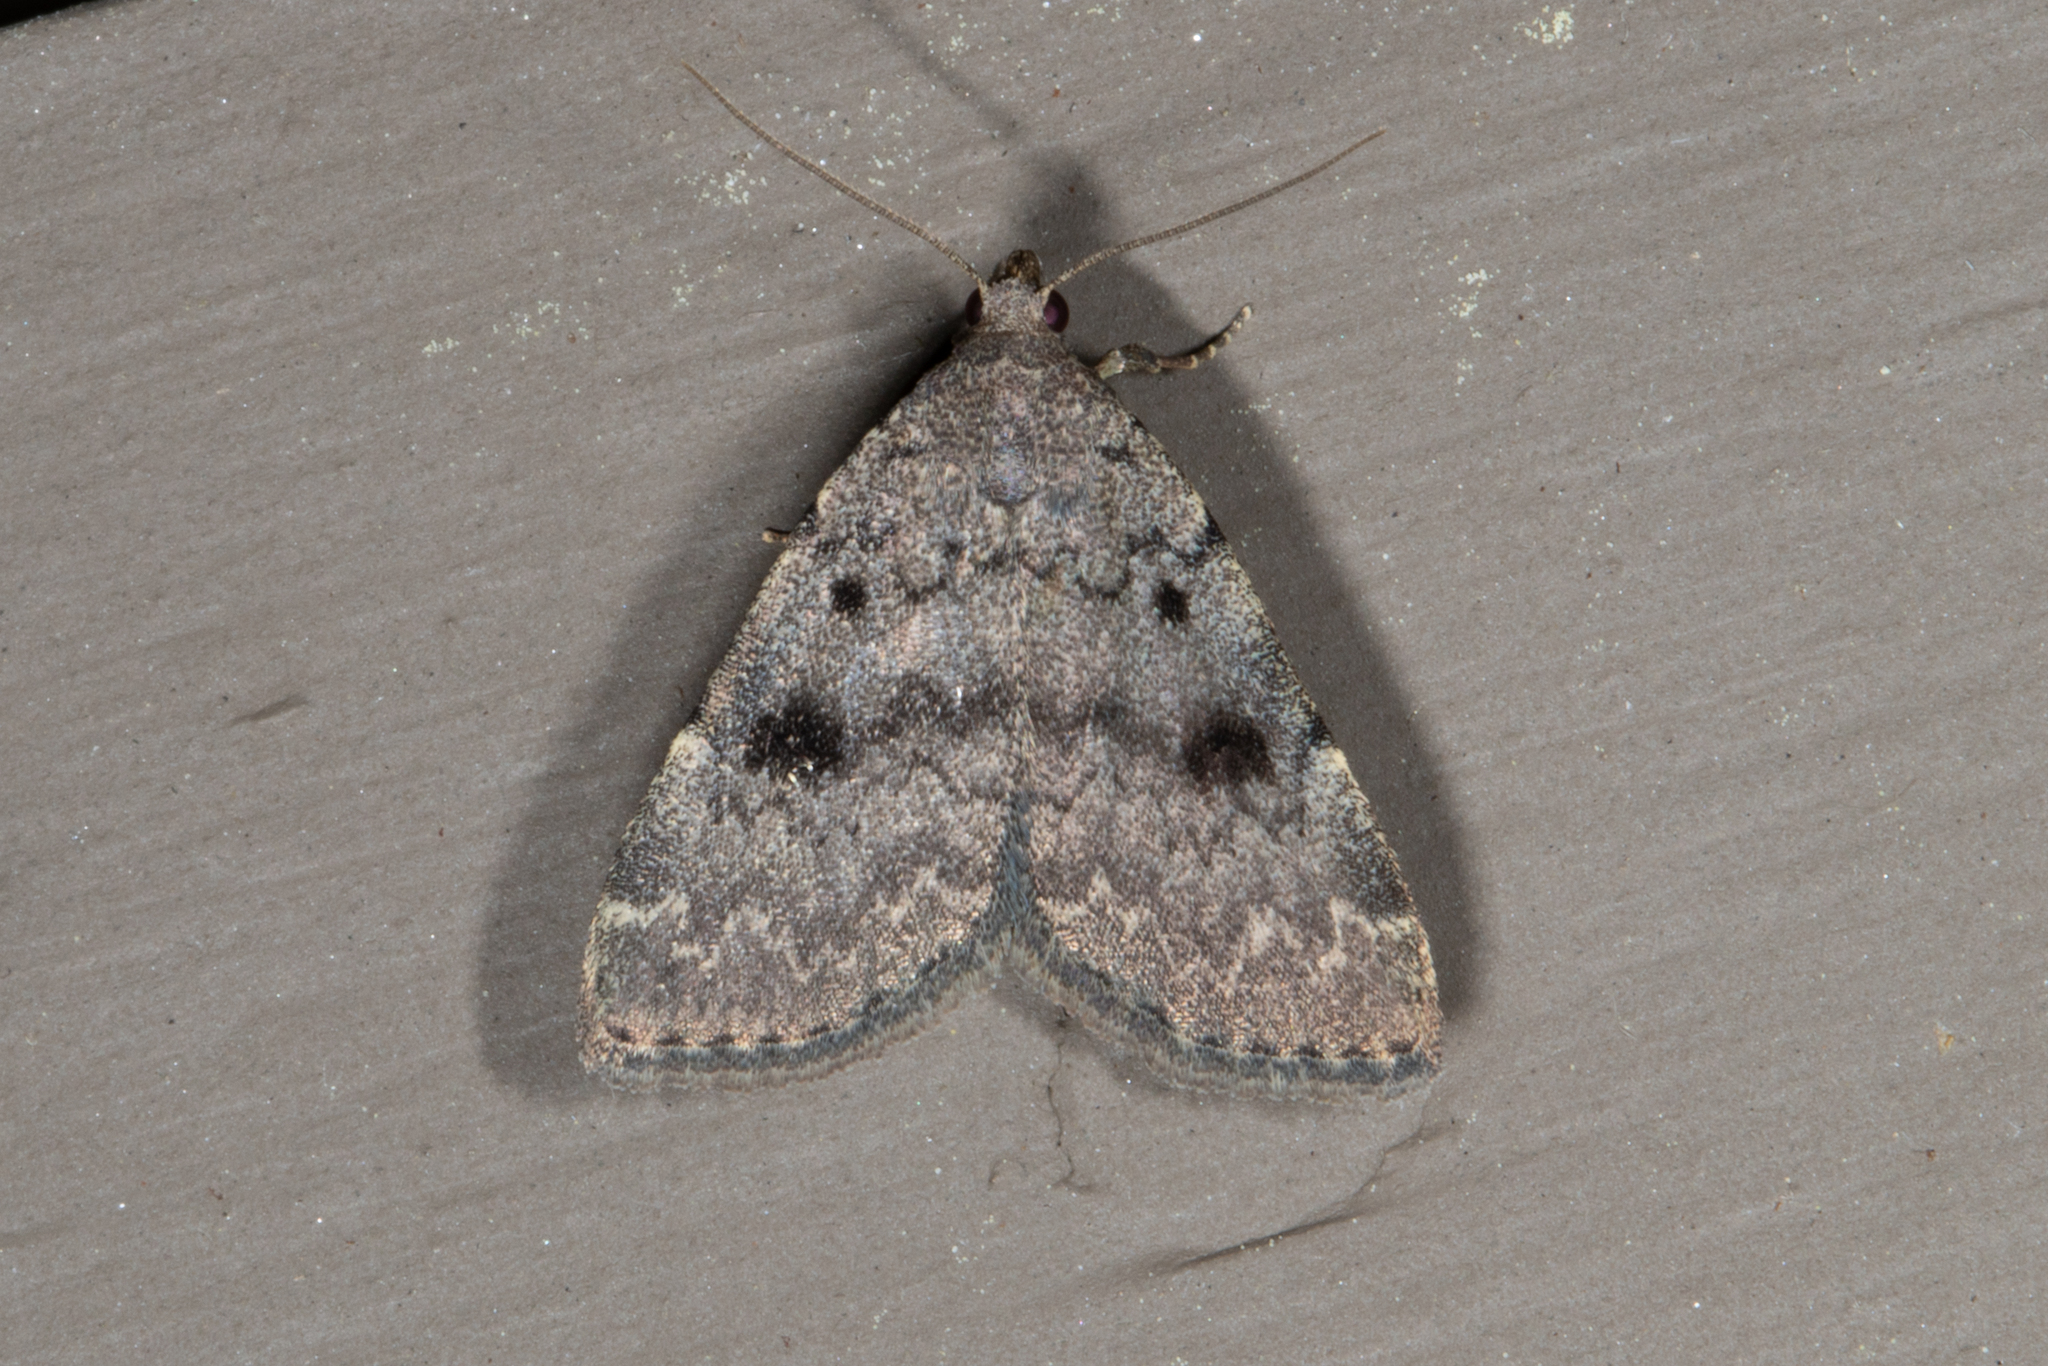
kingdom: Animalia
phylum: Arthropoda
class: Insecta
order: Lepidoptera
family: Erebidae
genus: Idia
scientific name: Idia aemula
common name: Common idia moth
